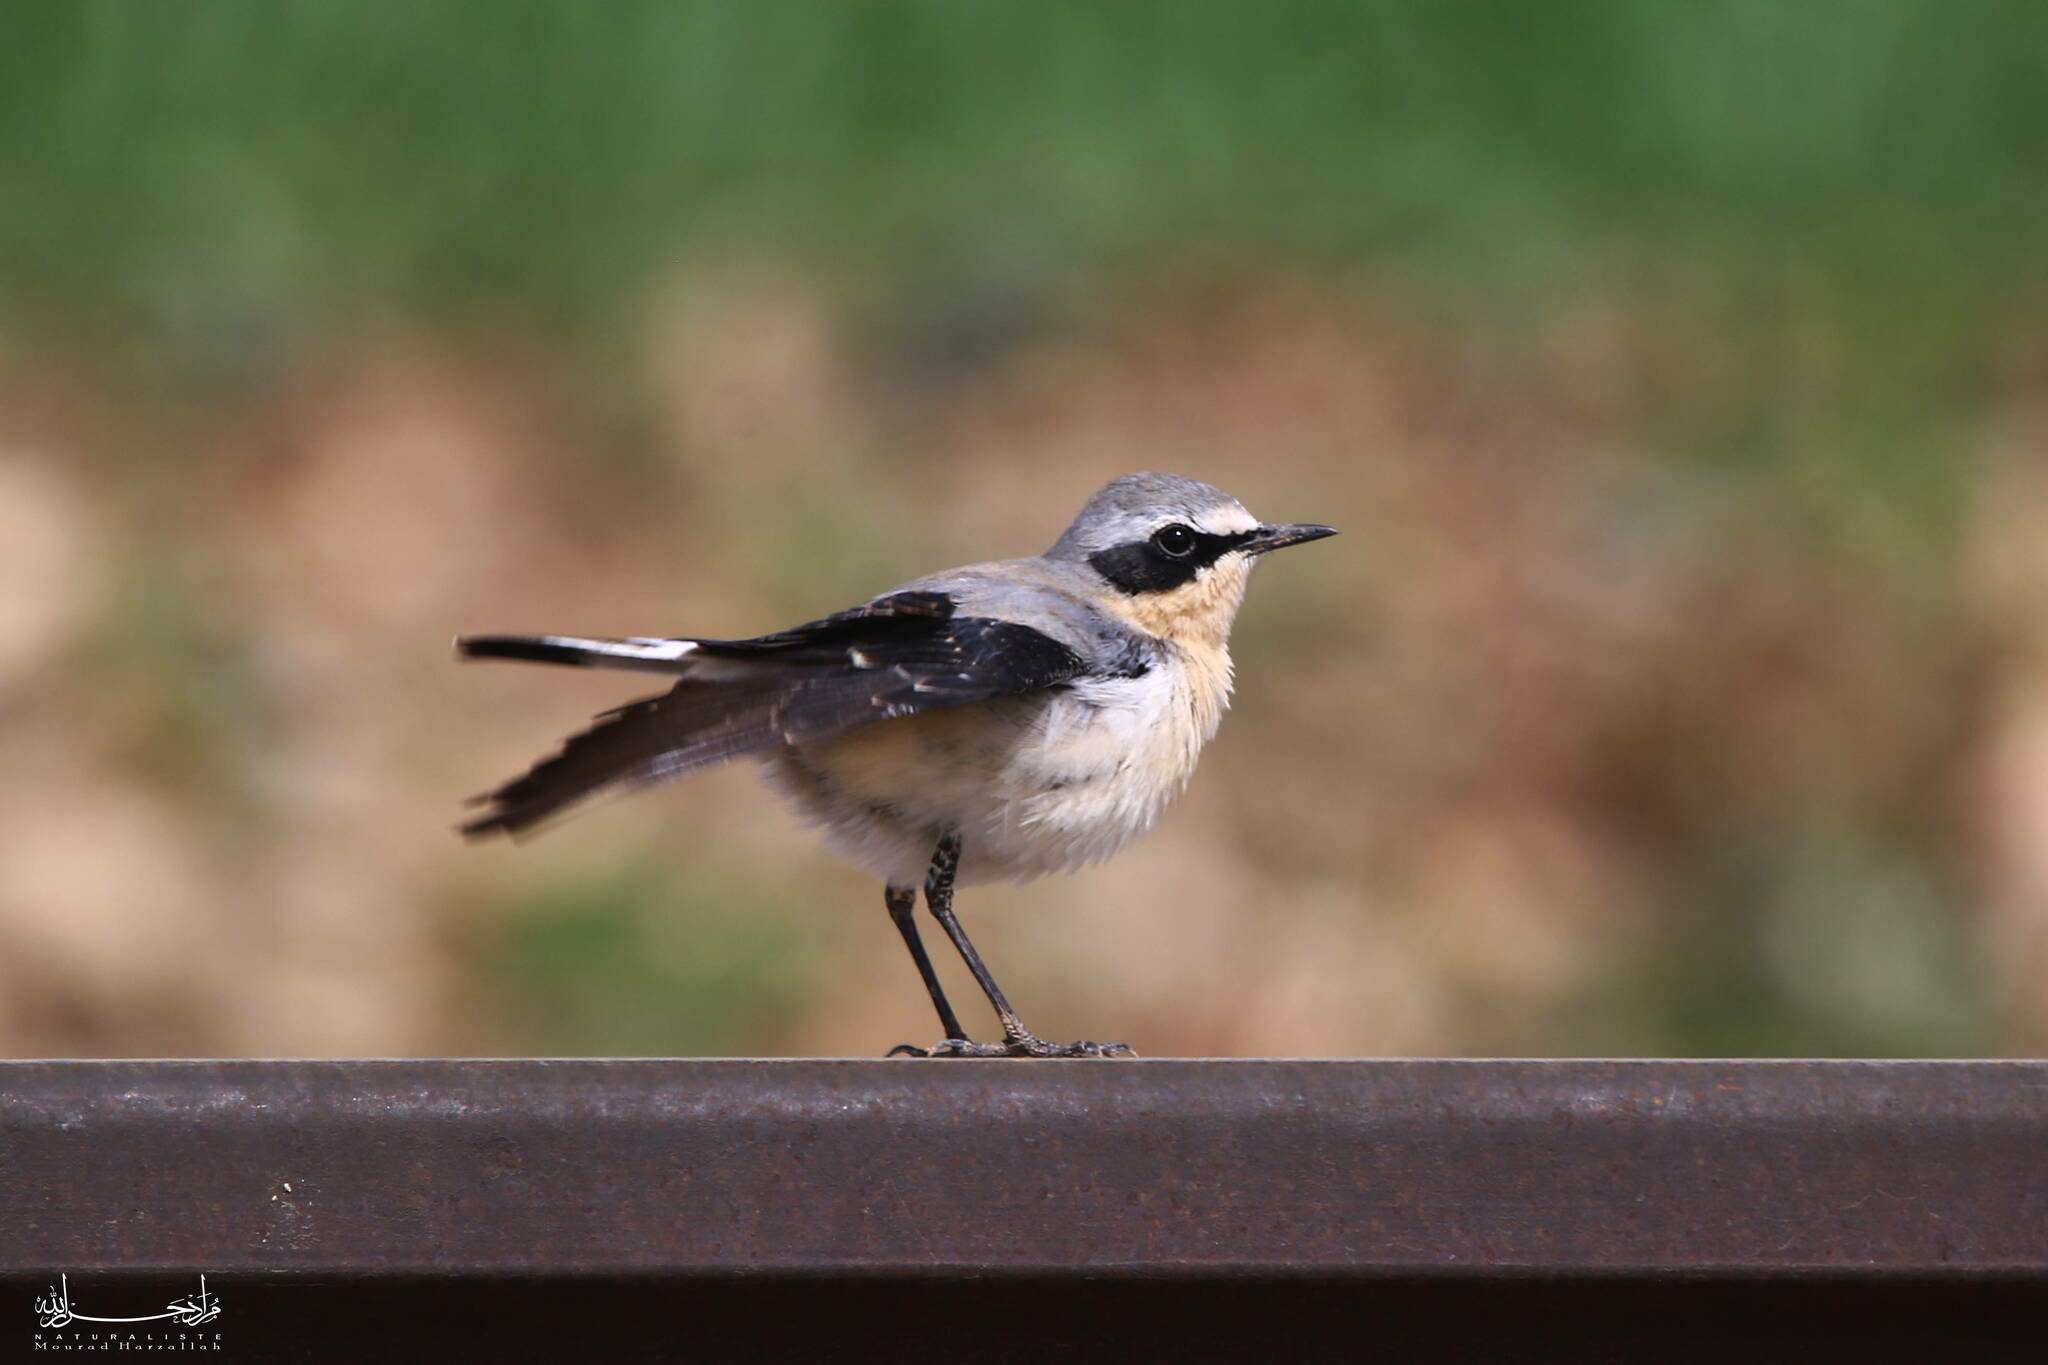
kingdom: Animalia
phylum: Chordata
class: Aves
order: Passeriformes
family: Muscicapidae
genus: Oenanthe
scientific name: Oenanthe oenanthe
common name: Northern wheatear
